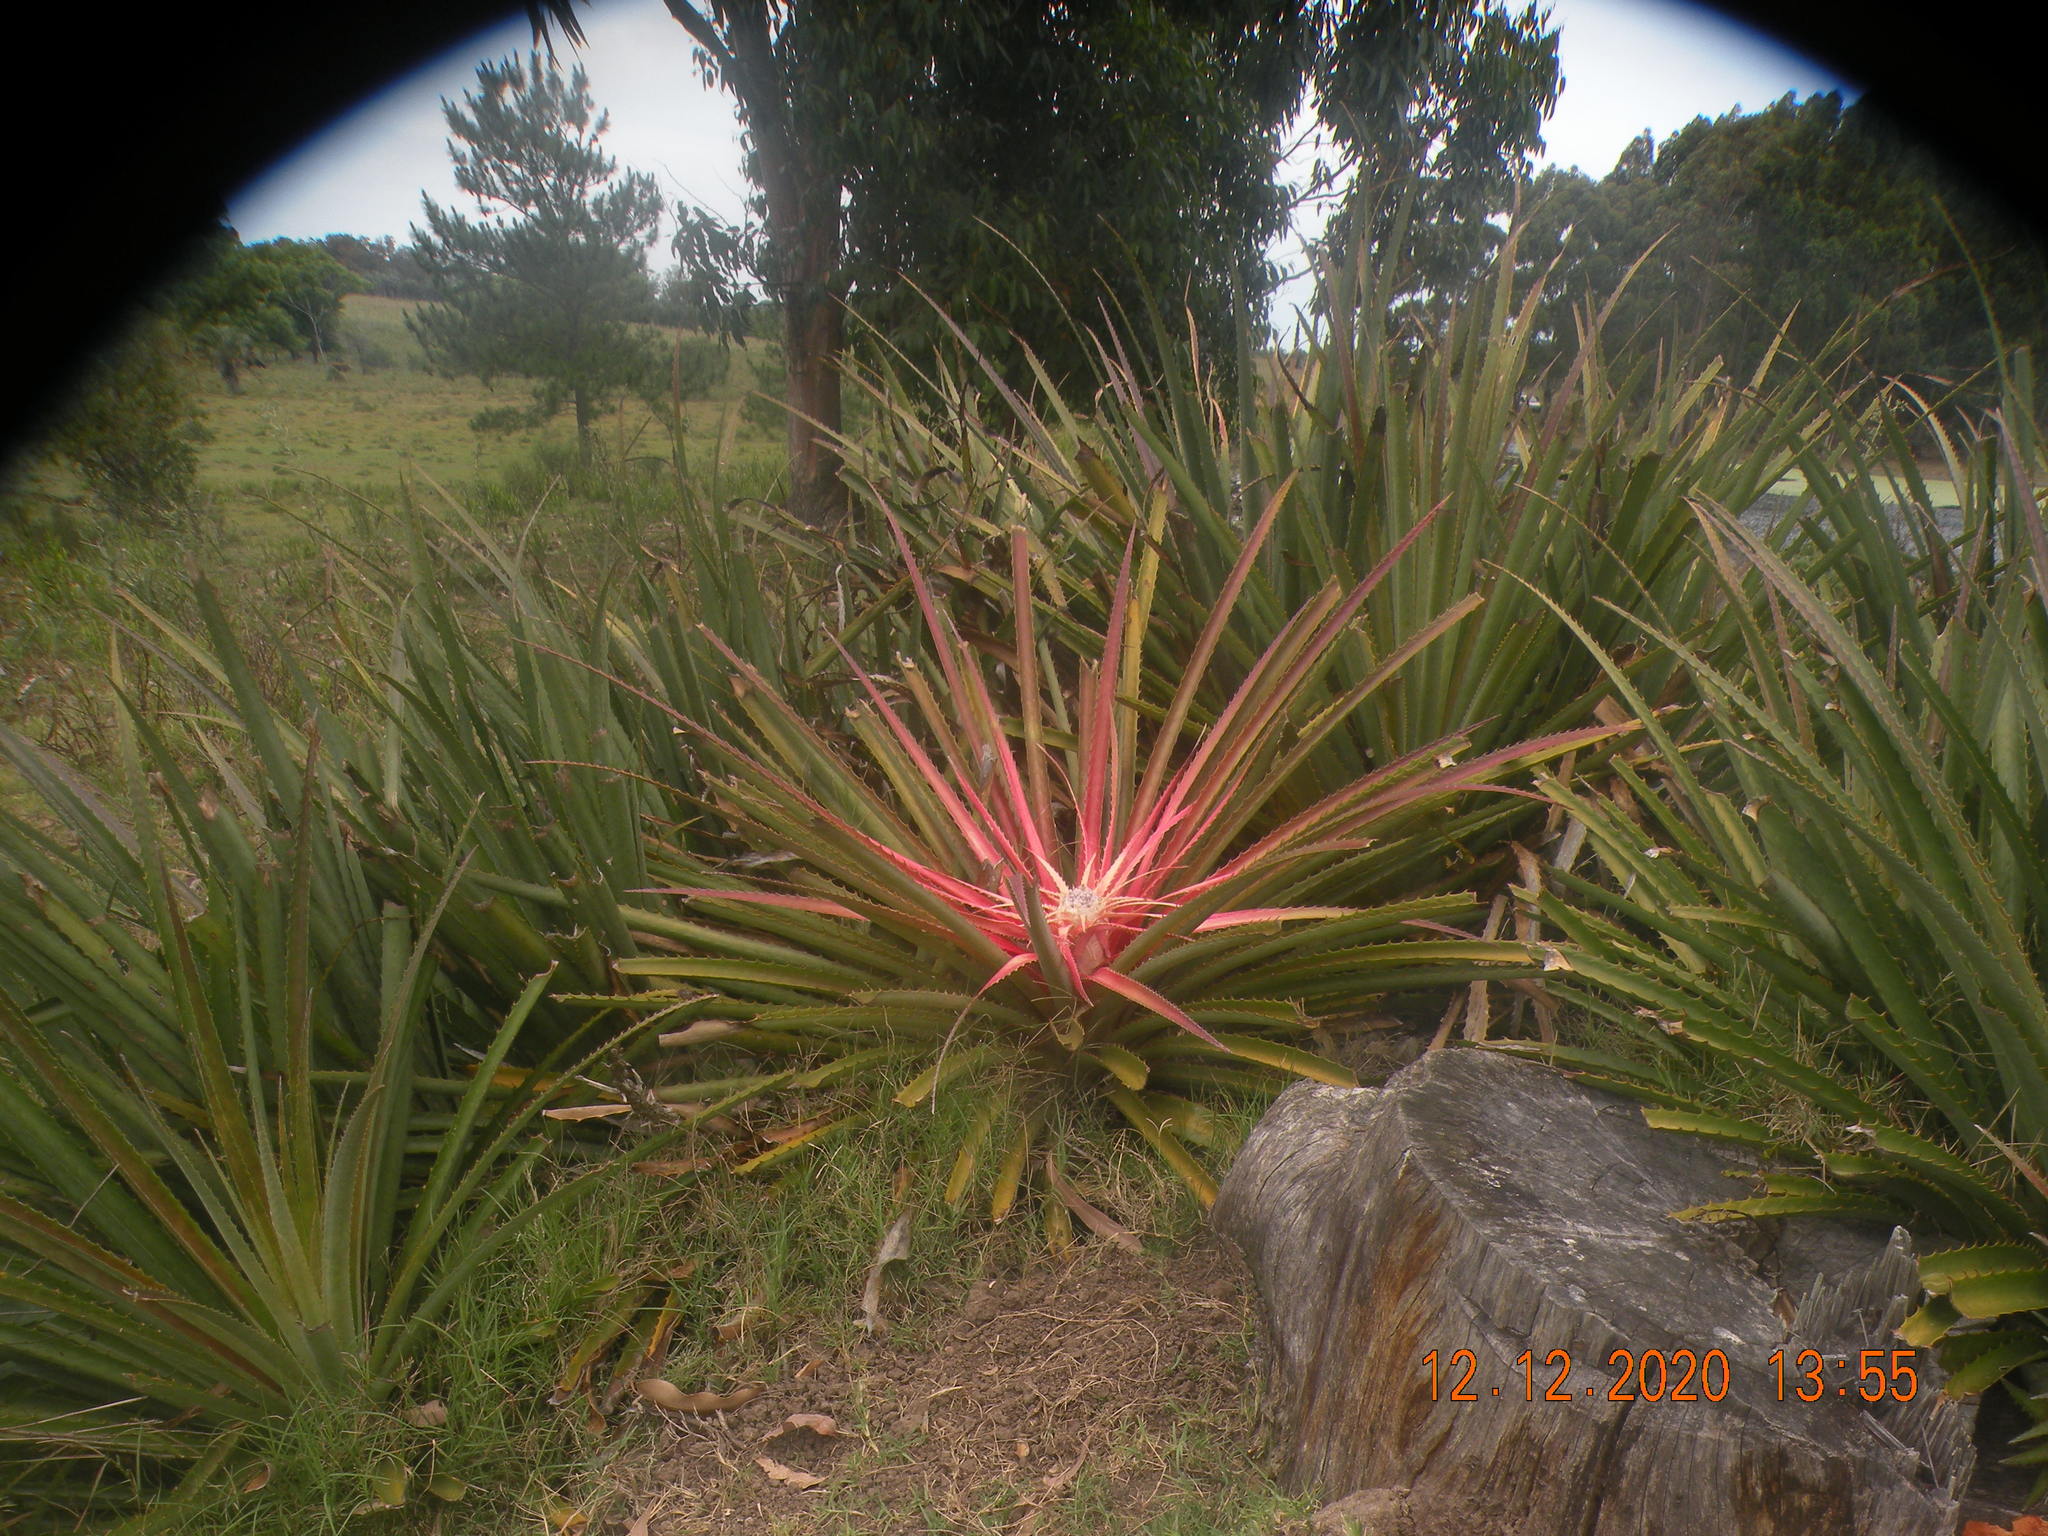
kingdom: Plantae
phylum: Tracheophyta
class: Liliopsida
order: Poales
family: Bromeliaceae
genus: Bromelia
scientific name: Bromelia antiacantha
